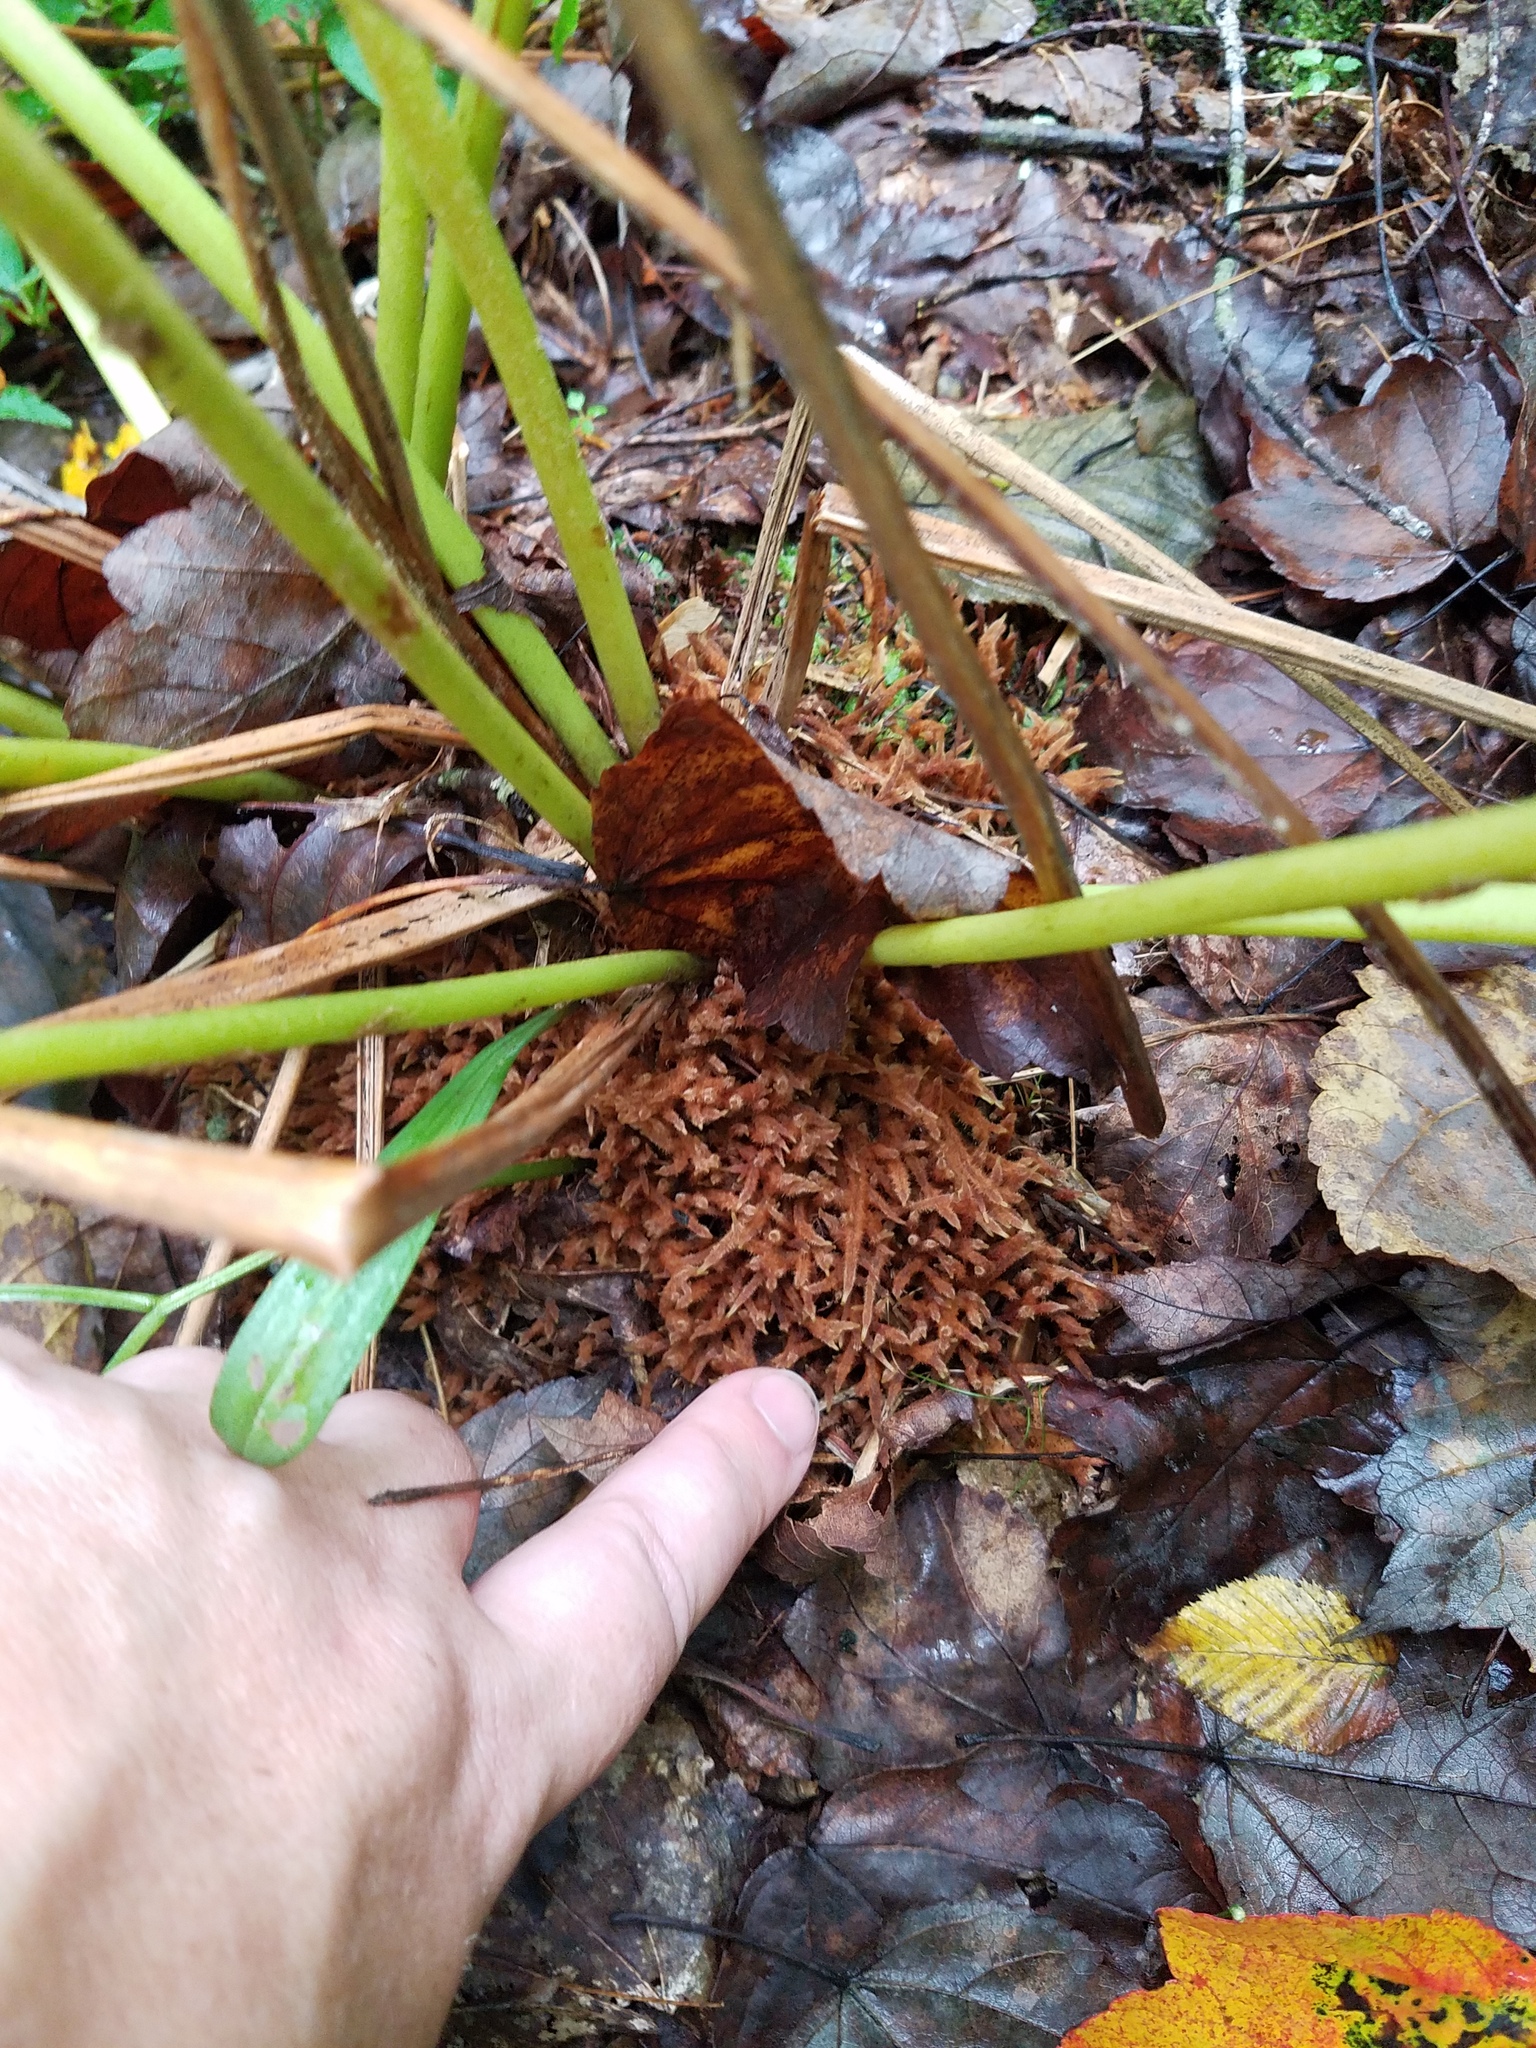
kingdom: Plantae
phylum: Tracheophyta
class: Polypodiopsida
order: Osmundales
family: Osmundaceae
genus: Osmundastrum
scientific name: Osmundastrum cinnamomeum
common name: Cinnamon fern
